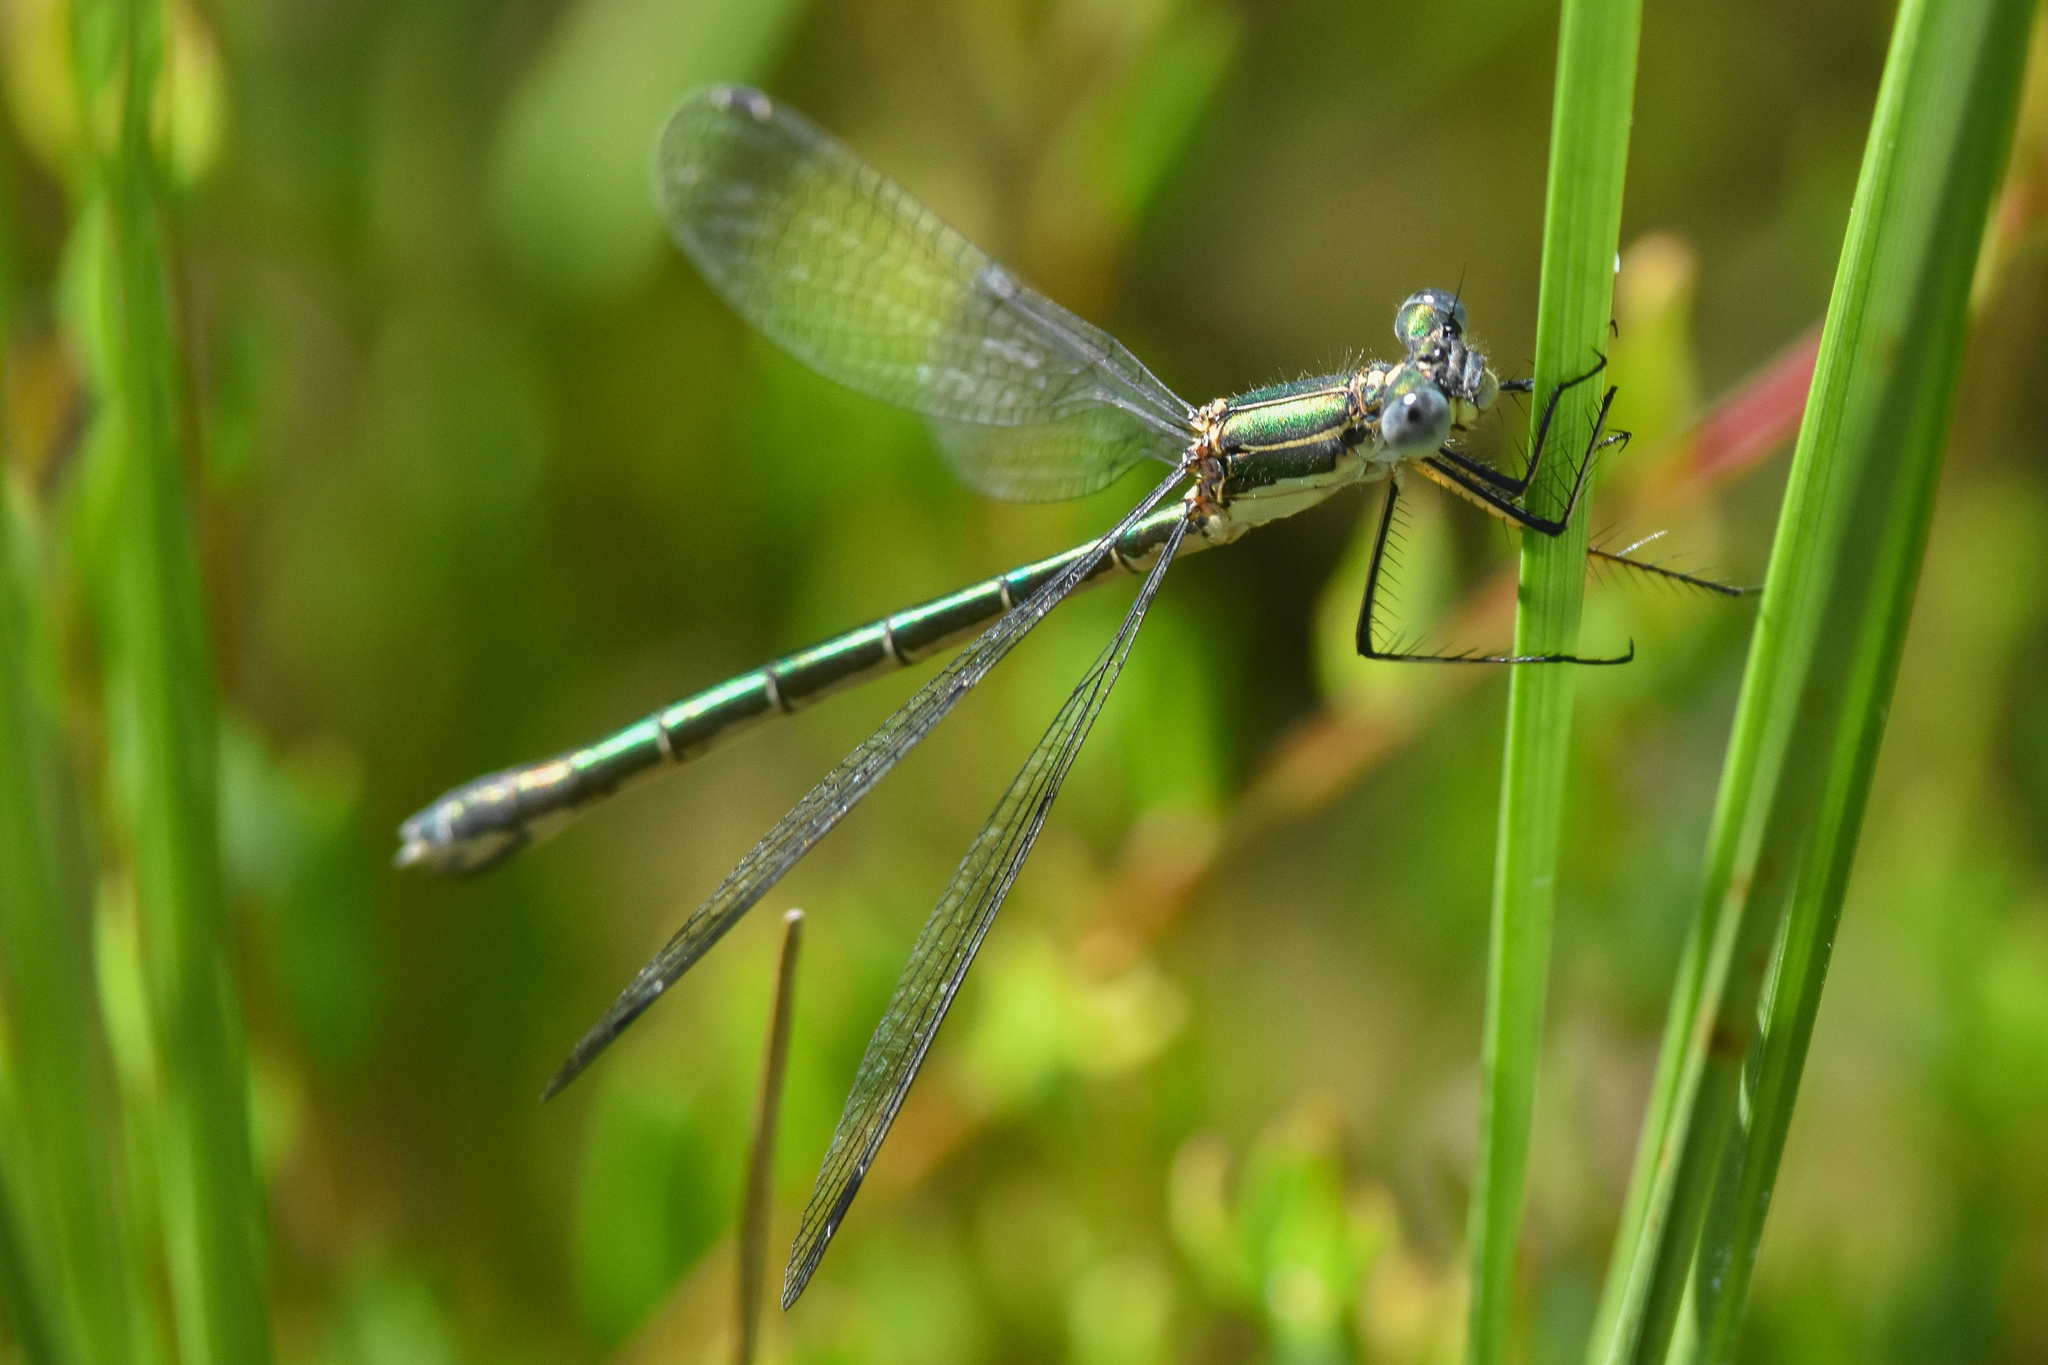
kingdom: Animalia
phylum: Arthropoda
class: Insecta
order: Odonata
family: Lestidae
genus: Lestes
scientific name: Lestes dryas
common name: Scarce emerald damselfly
